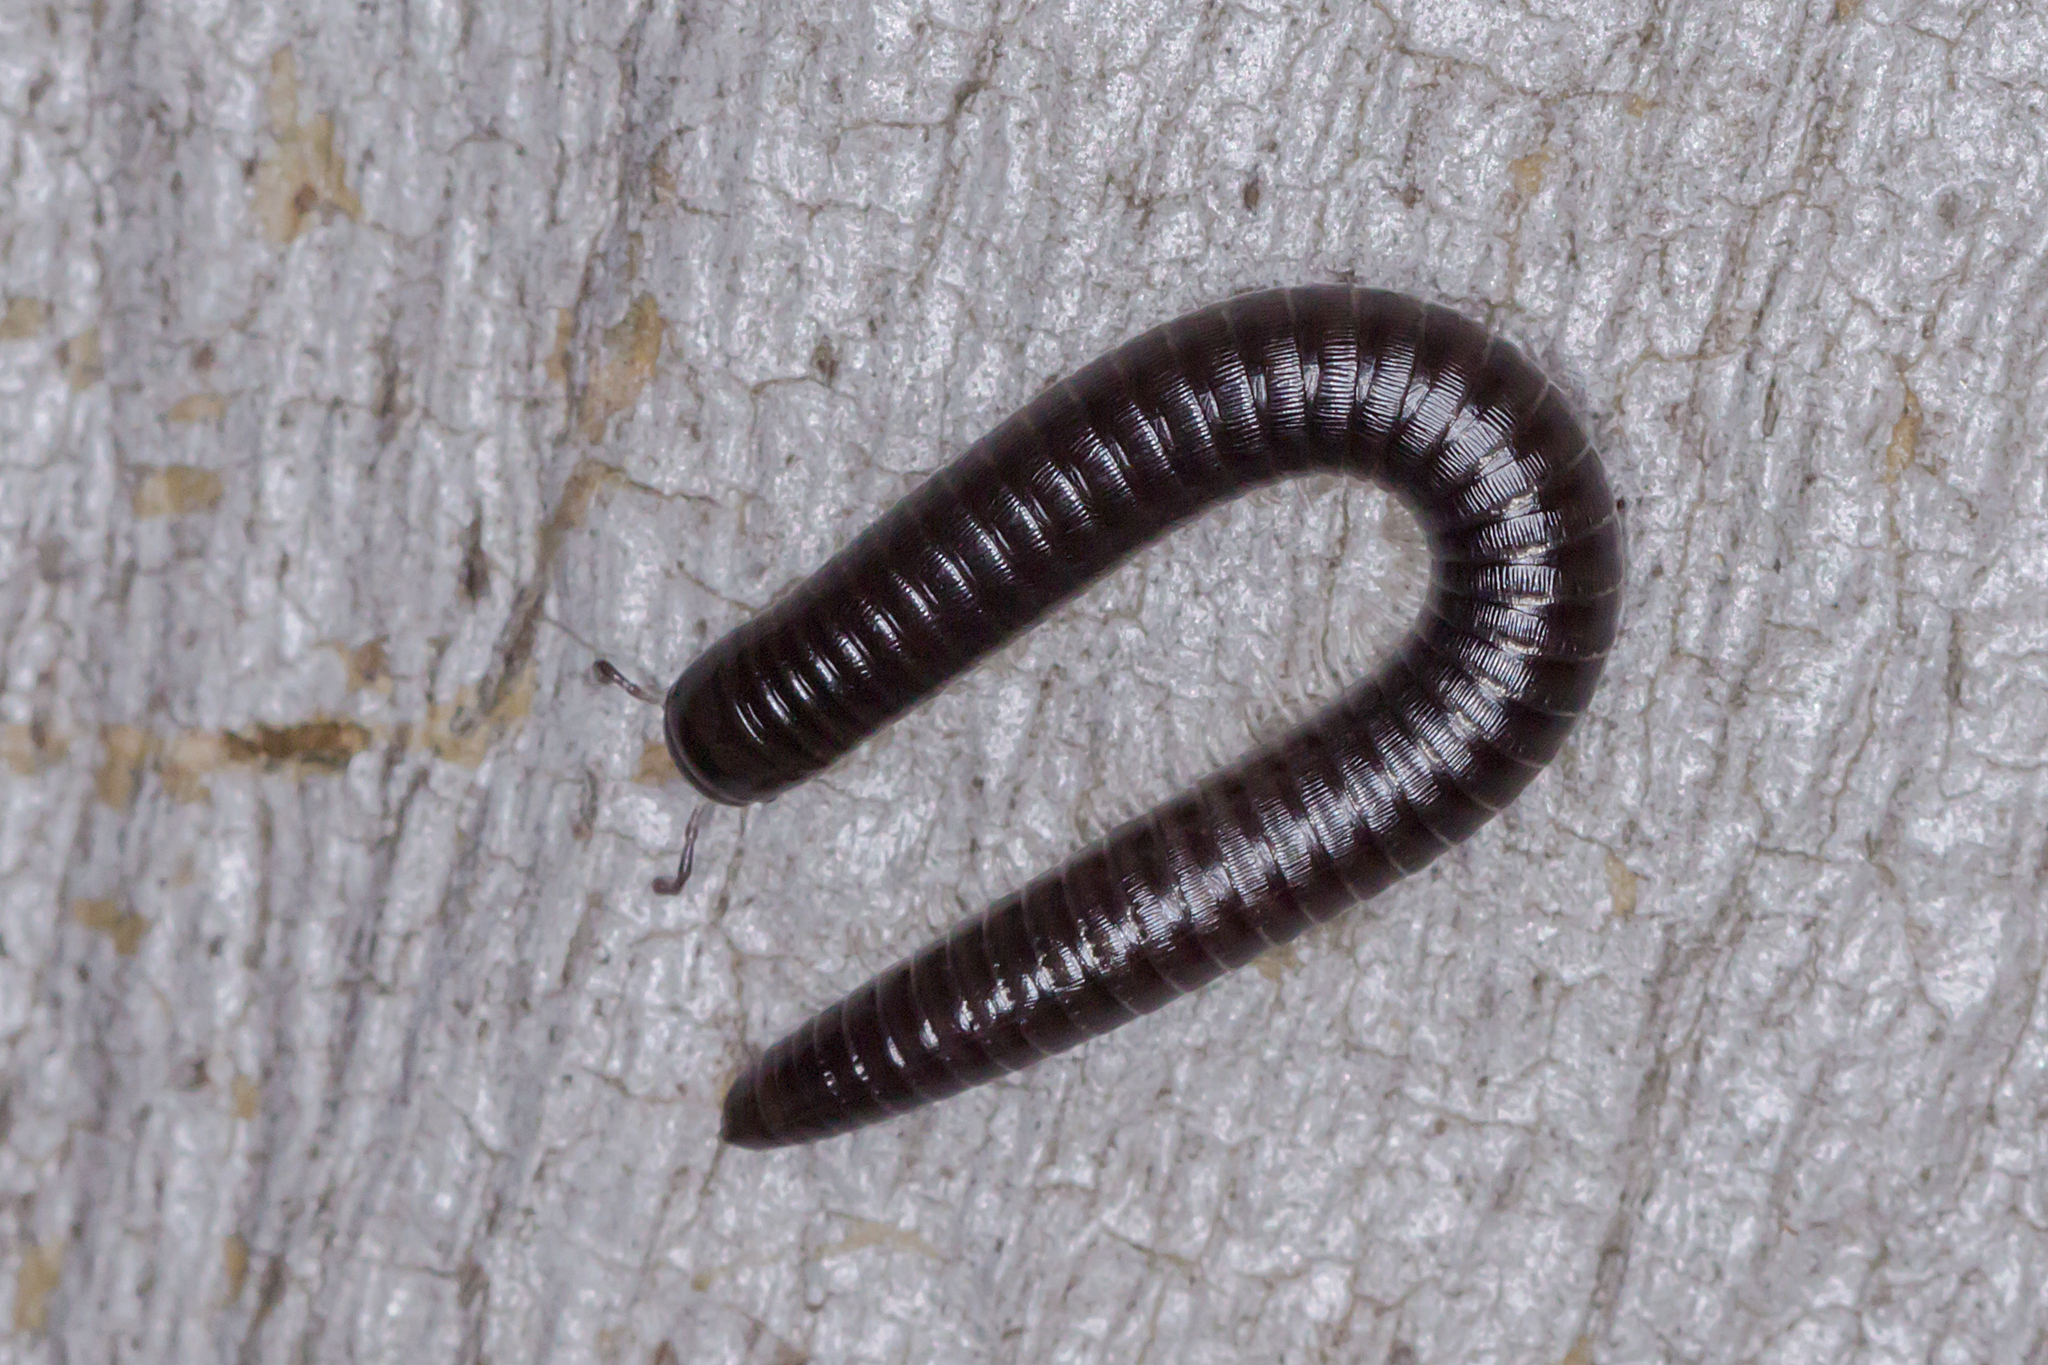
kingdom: Animalia
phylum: Arthropoda
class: Diplopoda
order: Julida
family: Julidae
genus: Ommatoiulus
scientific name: Ommatoiulus moreleti
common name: Portuguese millipede
